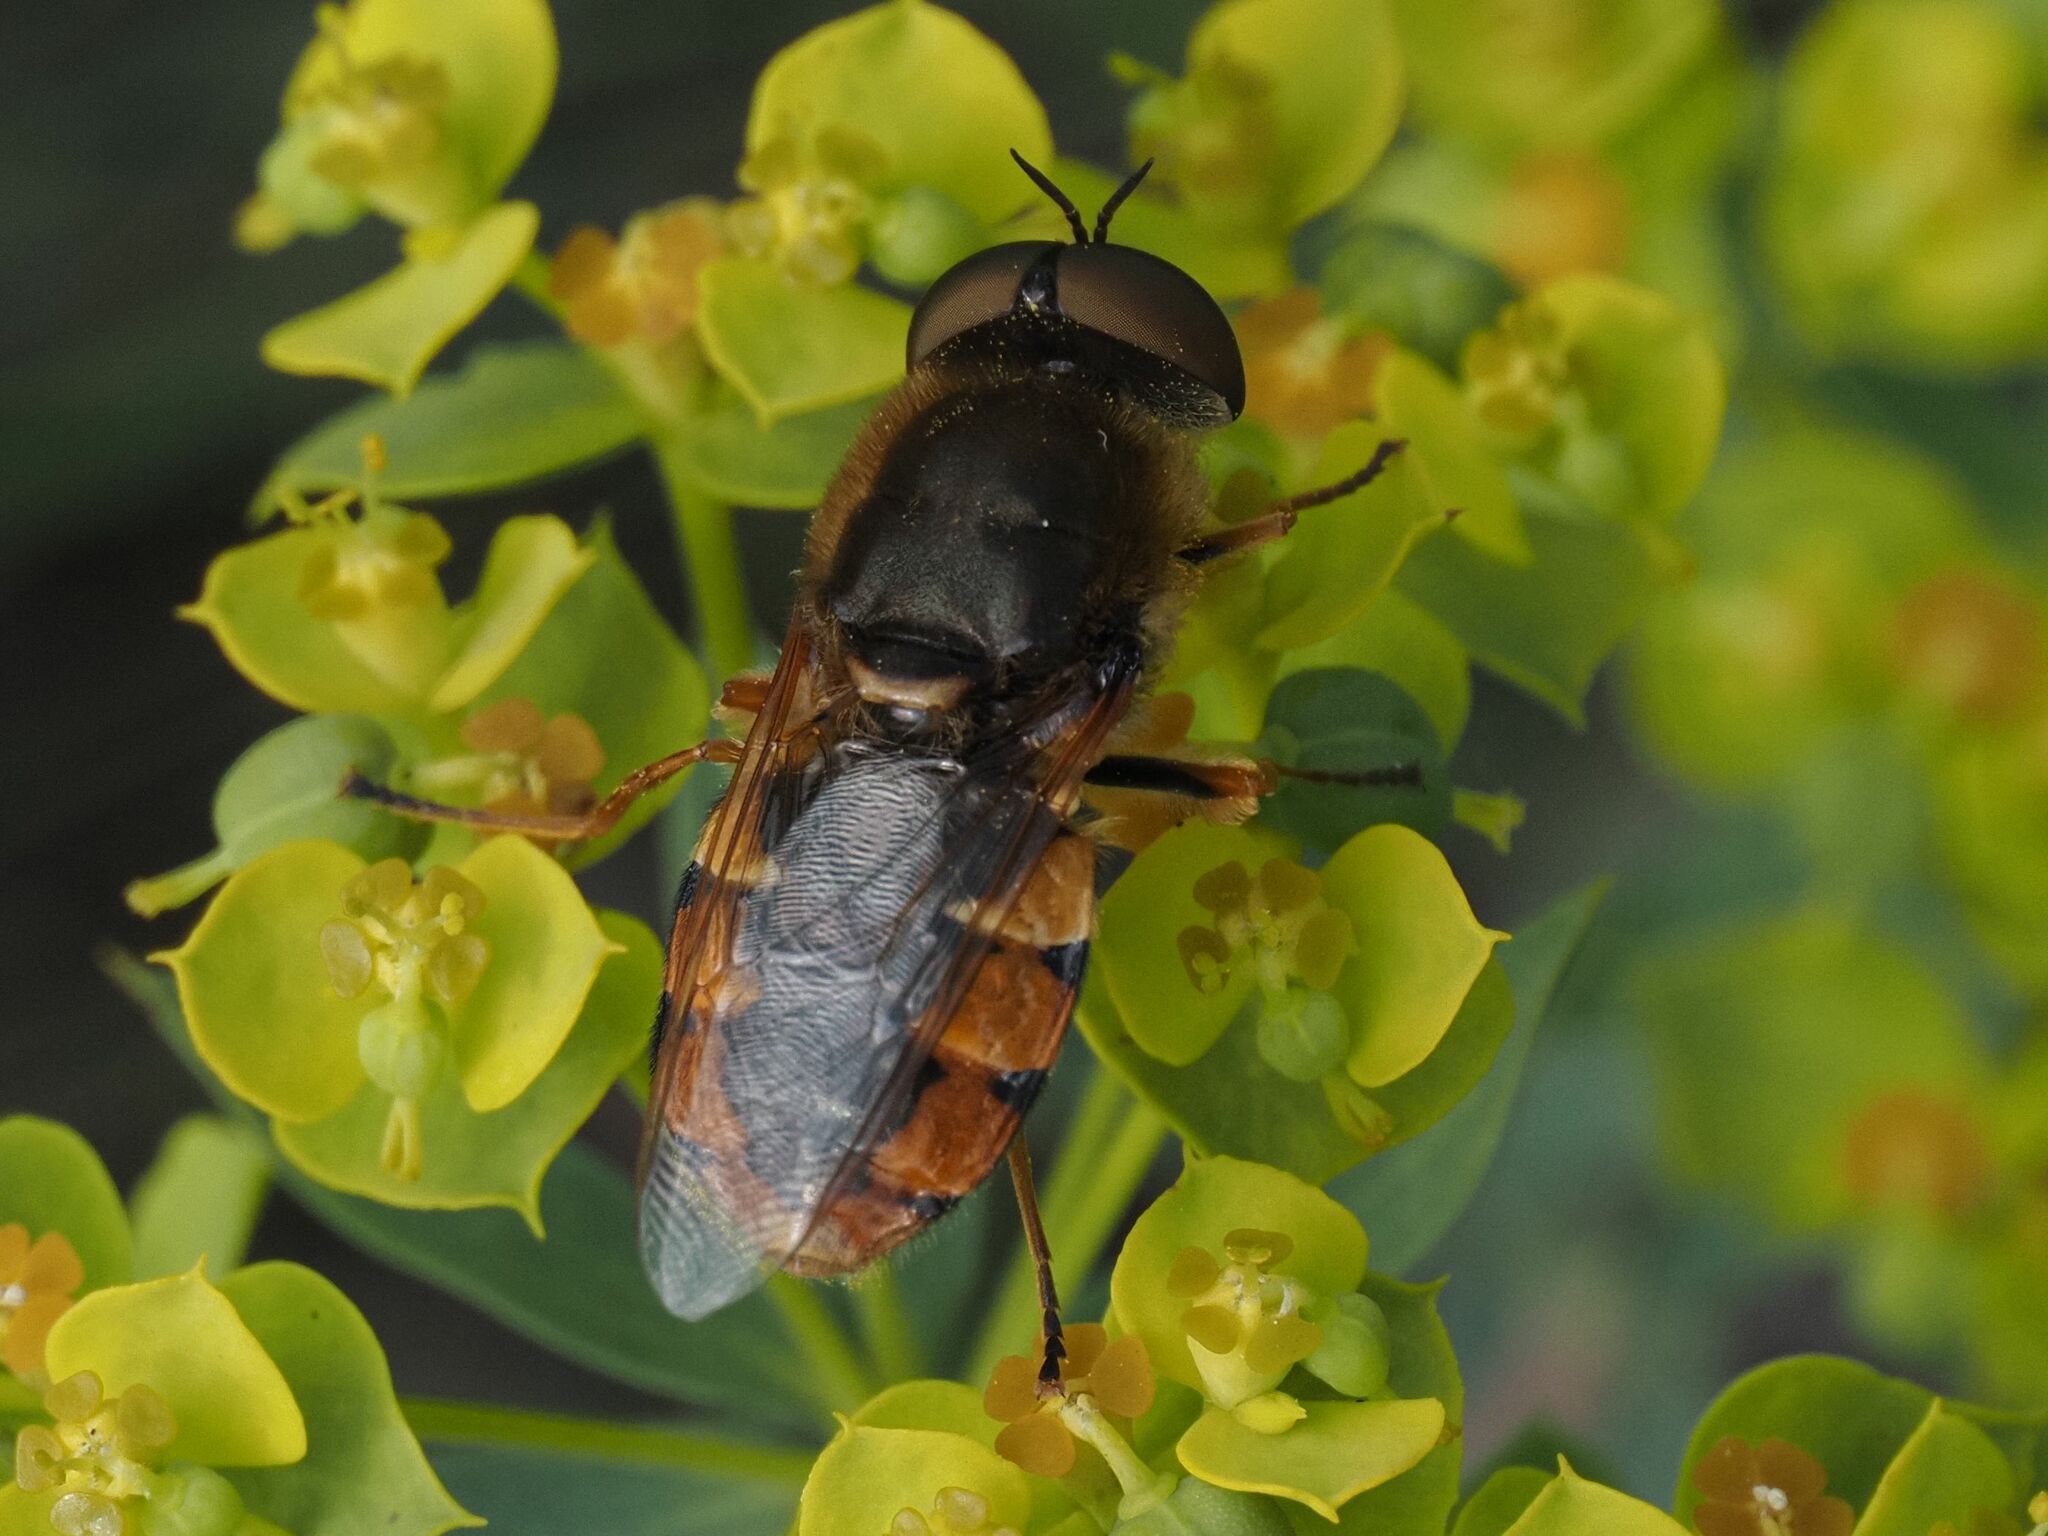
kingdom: Animalia
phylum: Arthropoda
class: Insecta
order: Diptera
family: Stratiomyidae
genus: Odontomyia
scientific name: Odontomyia ornata
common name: Ornate brigadier
